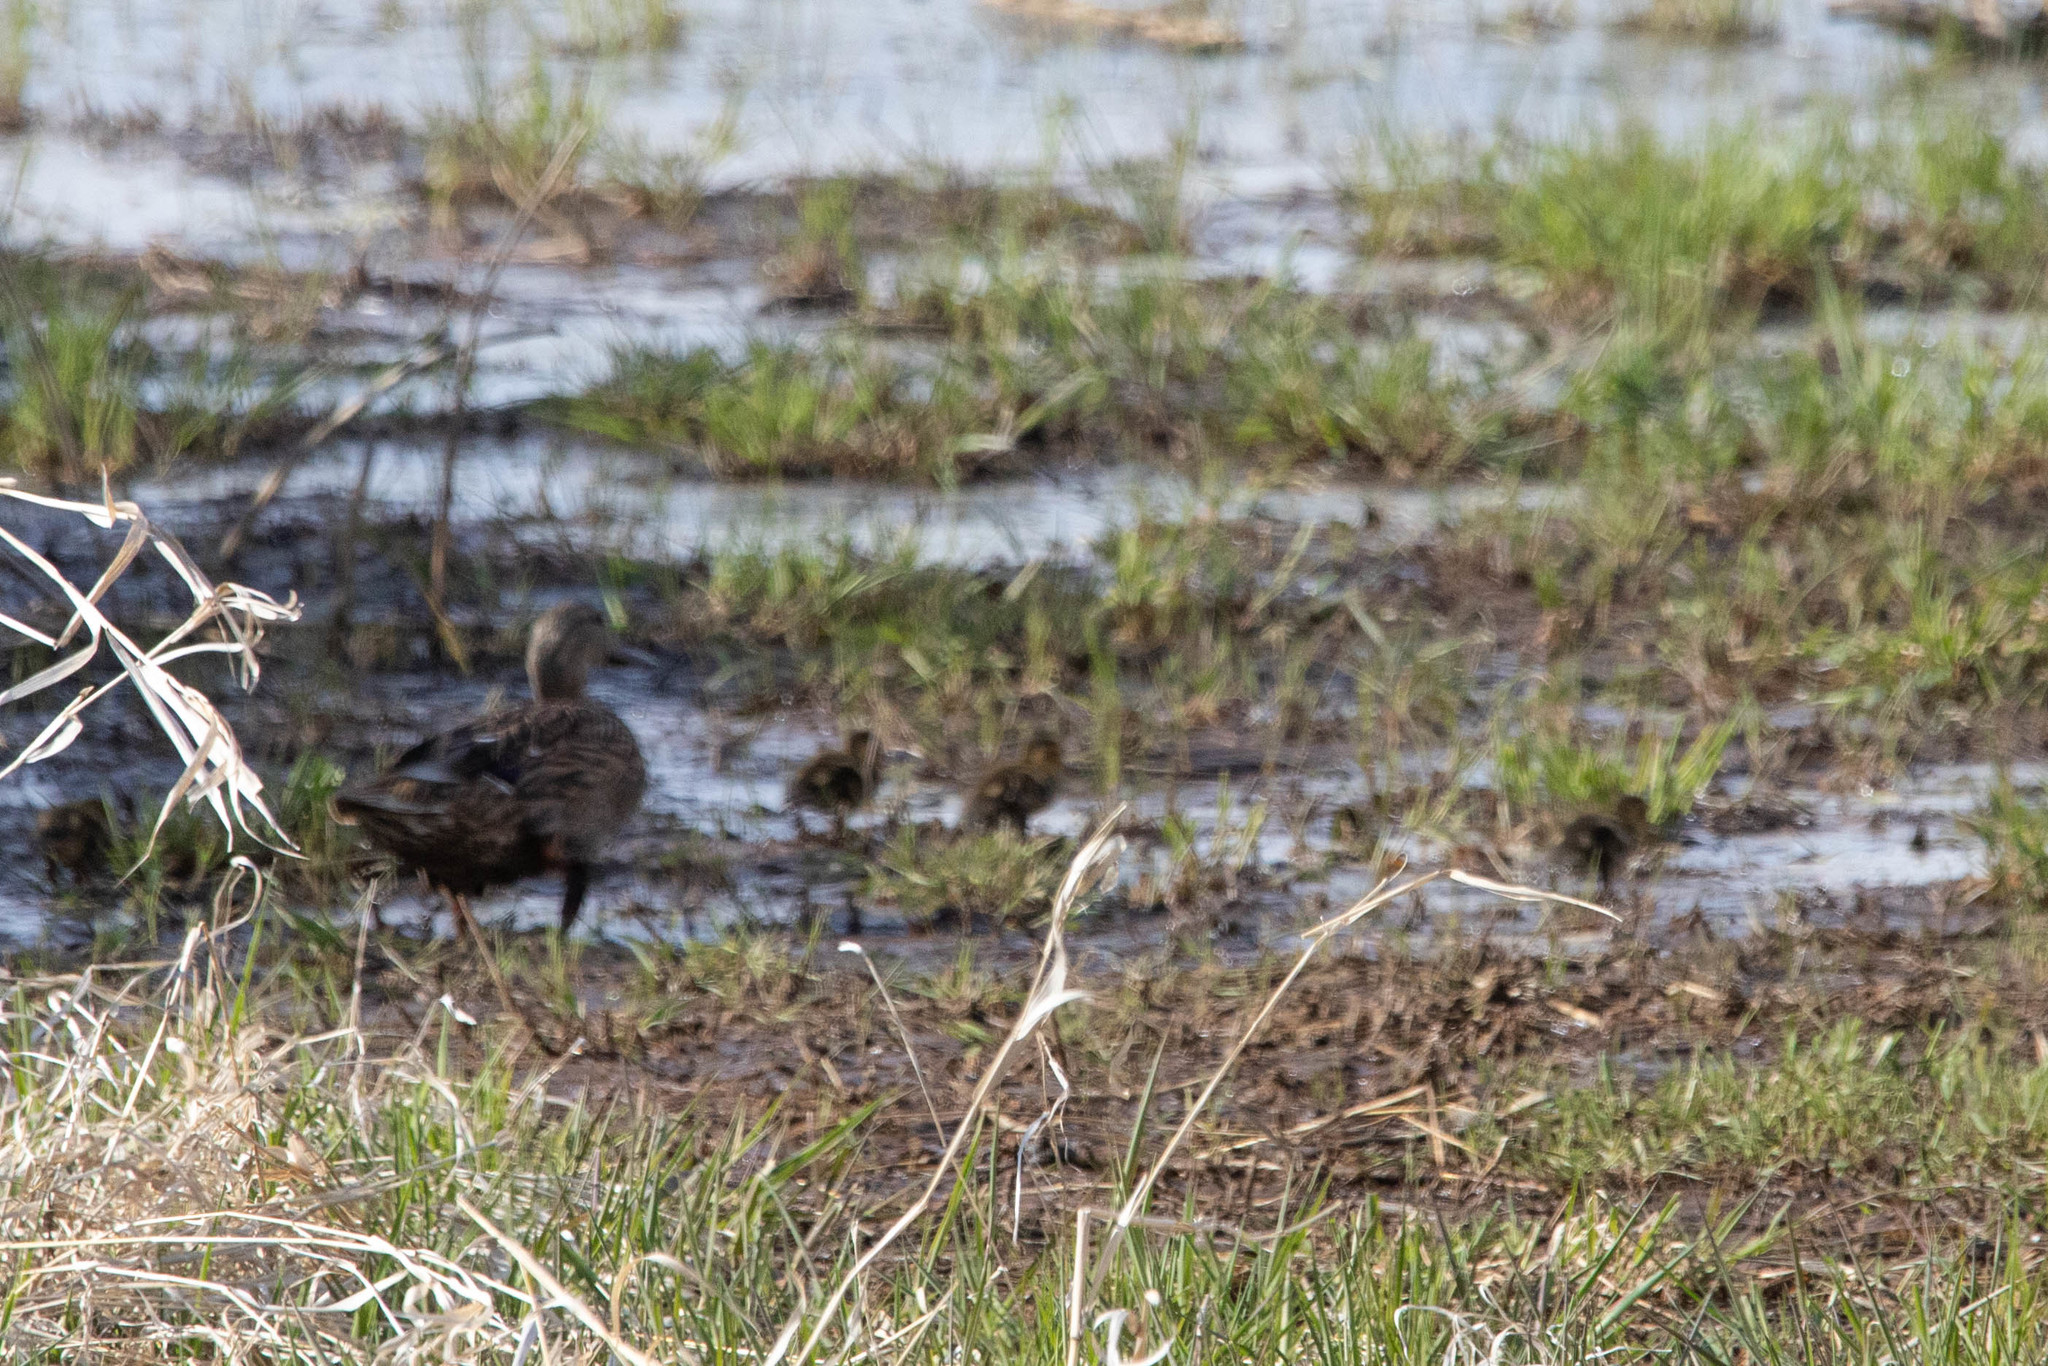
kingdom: Animalia
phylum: Chordata
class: Aves
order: Anseriformes
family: Anatidae
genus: Anas
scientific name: Anas platyrhynchos
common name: Mallard
